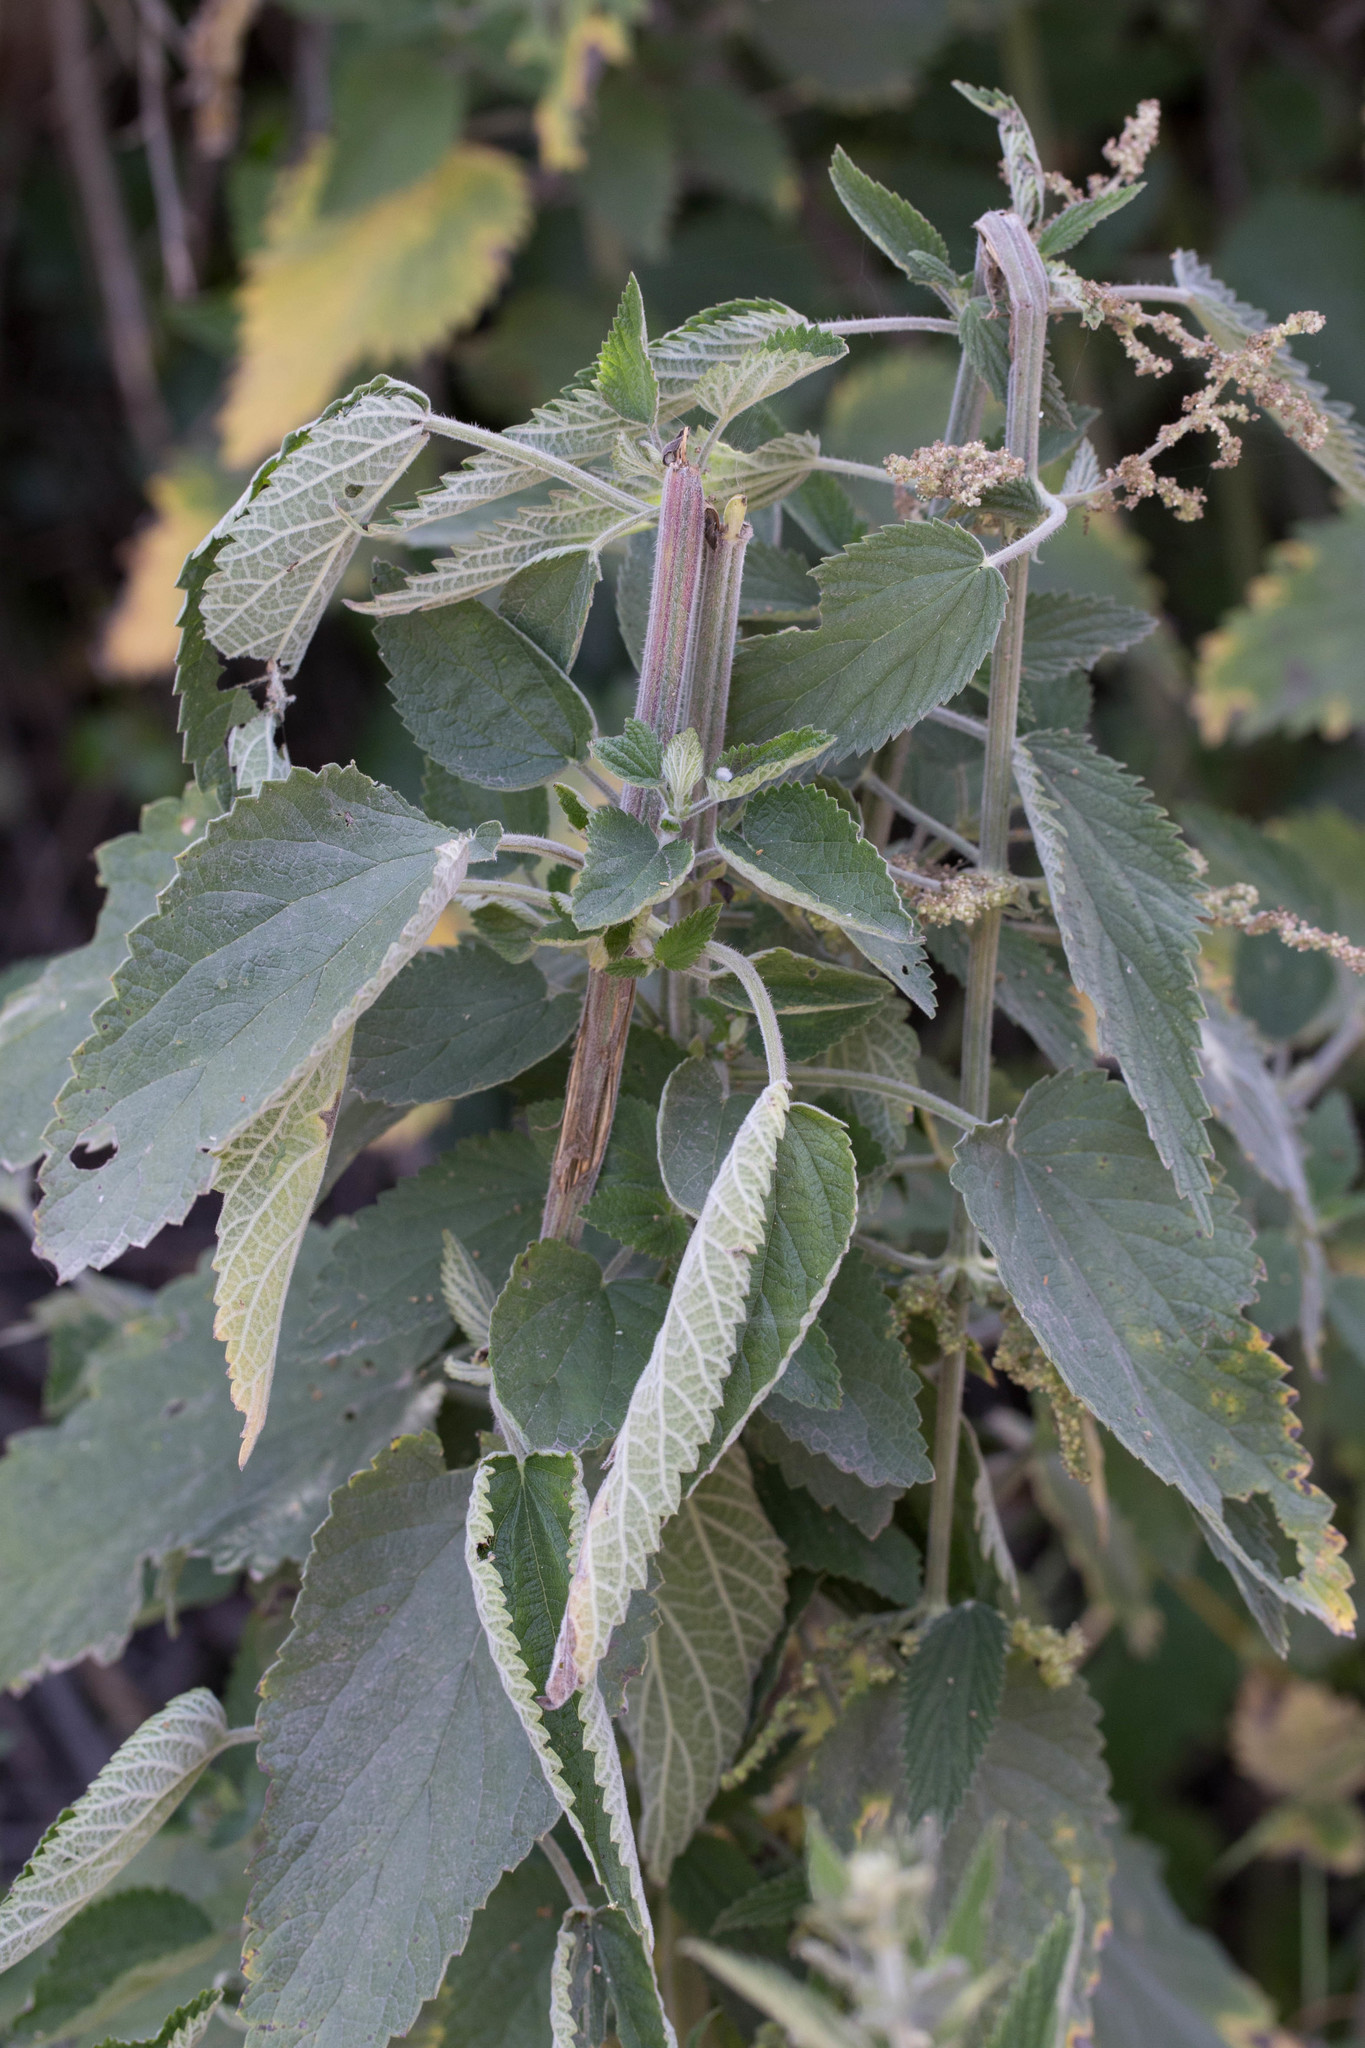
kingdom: Plantae
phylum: Tracheophyta
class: Magnoliopsida
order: Rosales
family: Urticaceae
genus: Urtica
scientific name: Urtica dioica
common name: Common nettle
